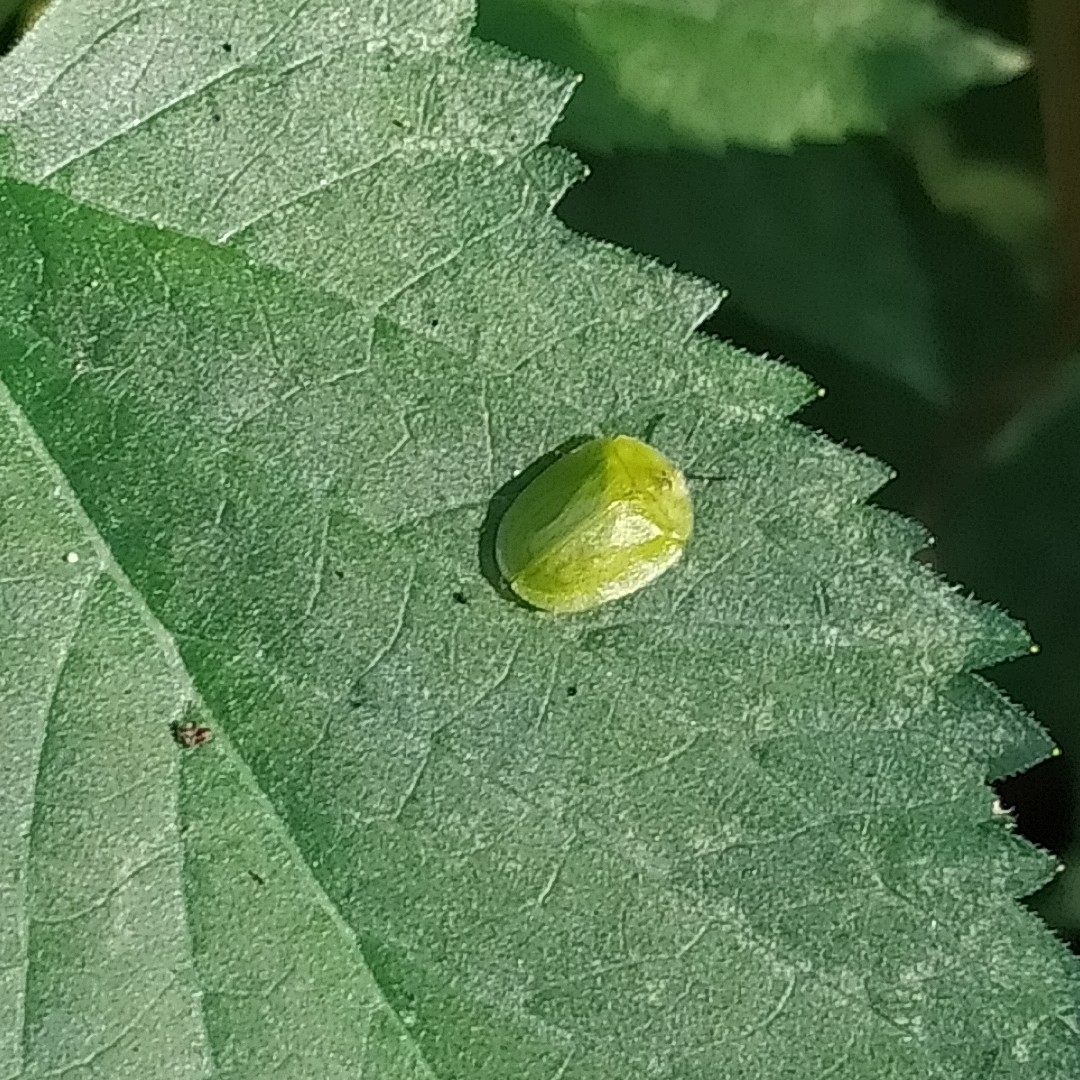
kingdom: Animalia
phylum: Arthropoda
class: Insecta
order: Coleoptera
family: Chrysomelidae
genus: Cassida
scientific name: Cassida viridis
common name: Green tortoise beetle
